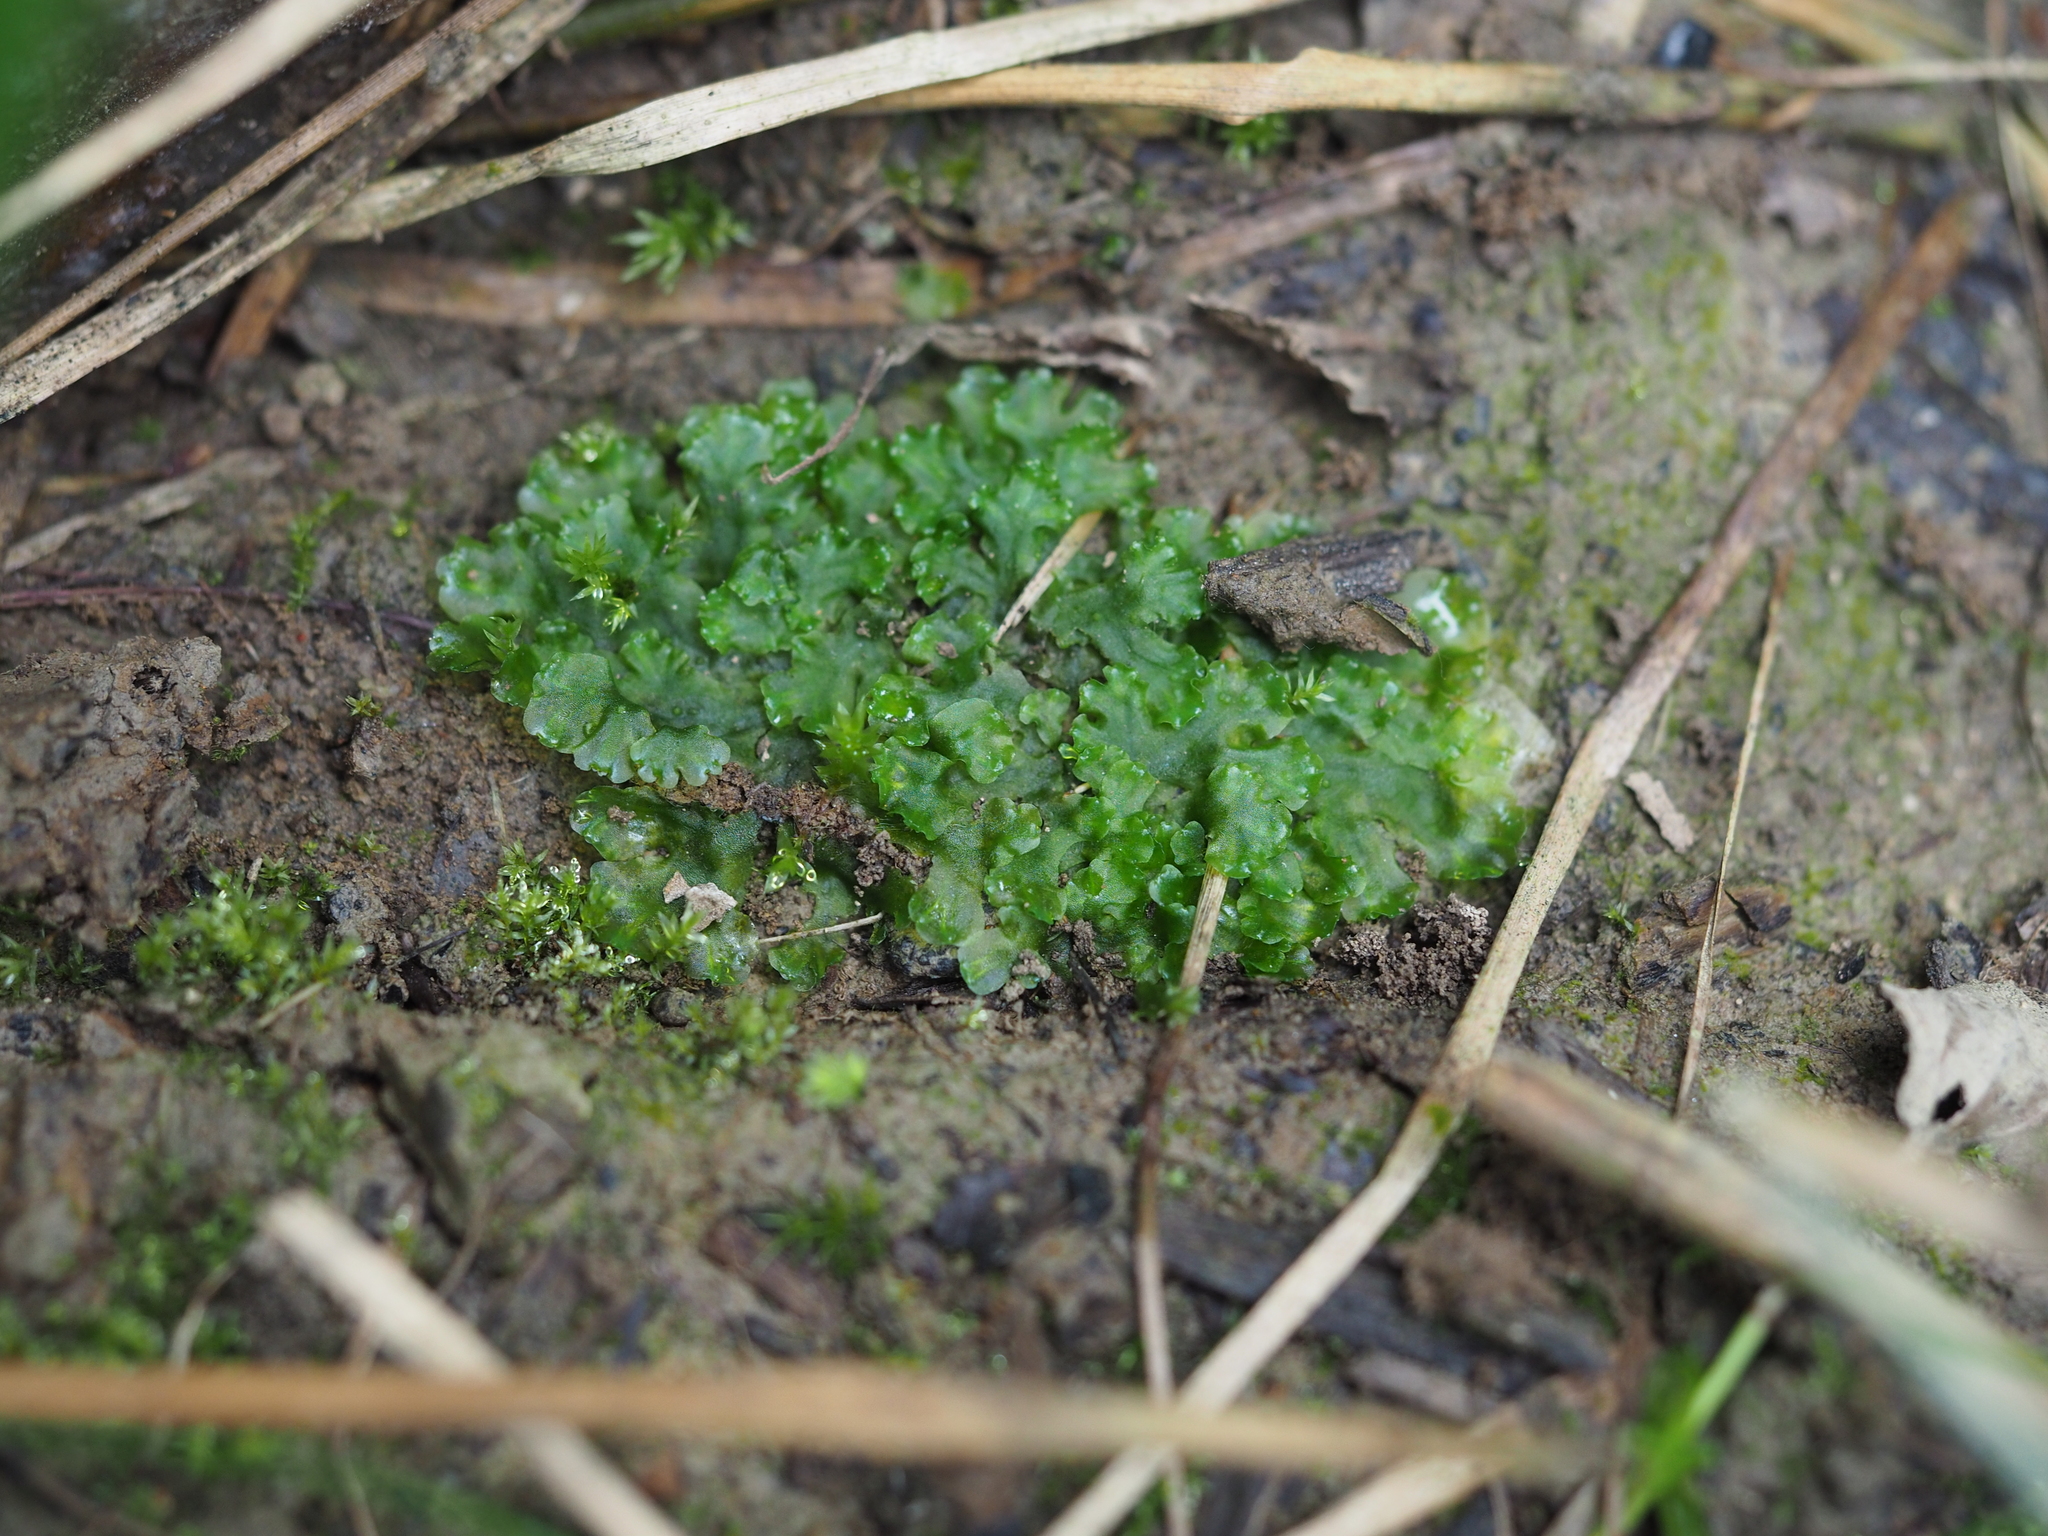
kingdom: Plantae
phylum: Marchantiophyta
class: Jungermanniopsida
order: Pelliales
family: Pelliaceae
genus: Apopellia
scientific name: Apopellia endiviifolia
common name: Endive pellia
